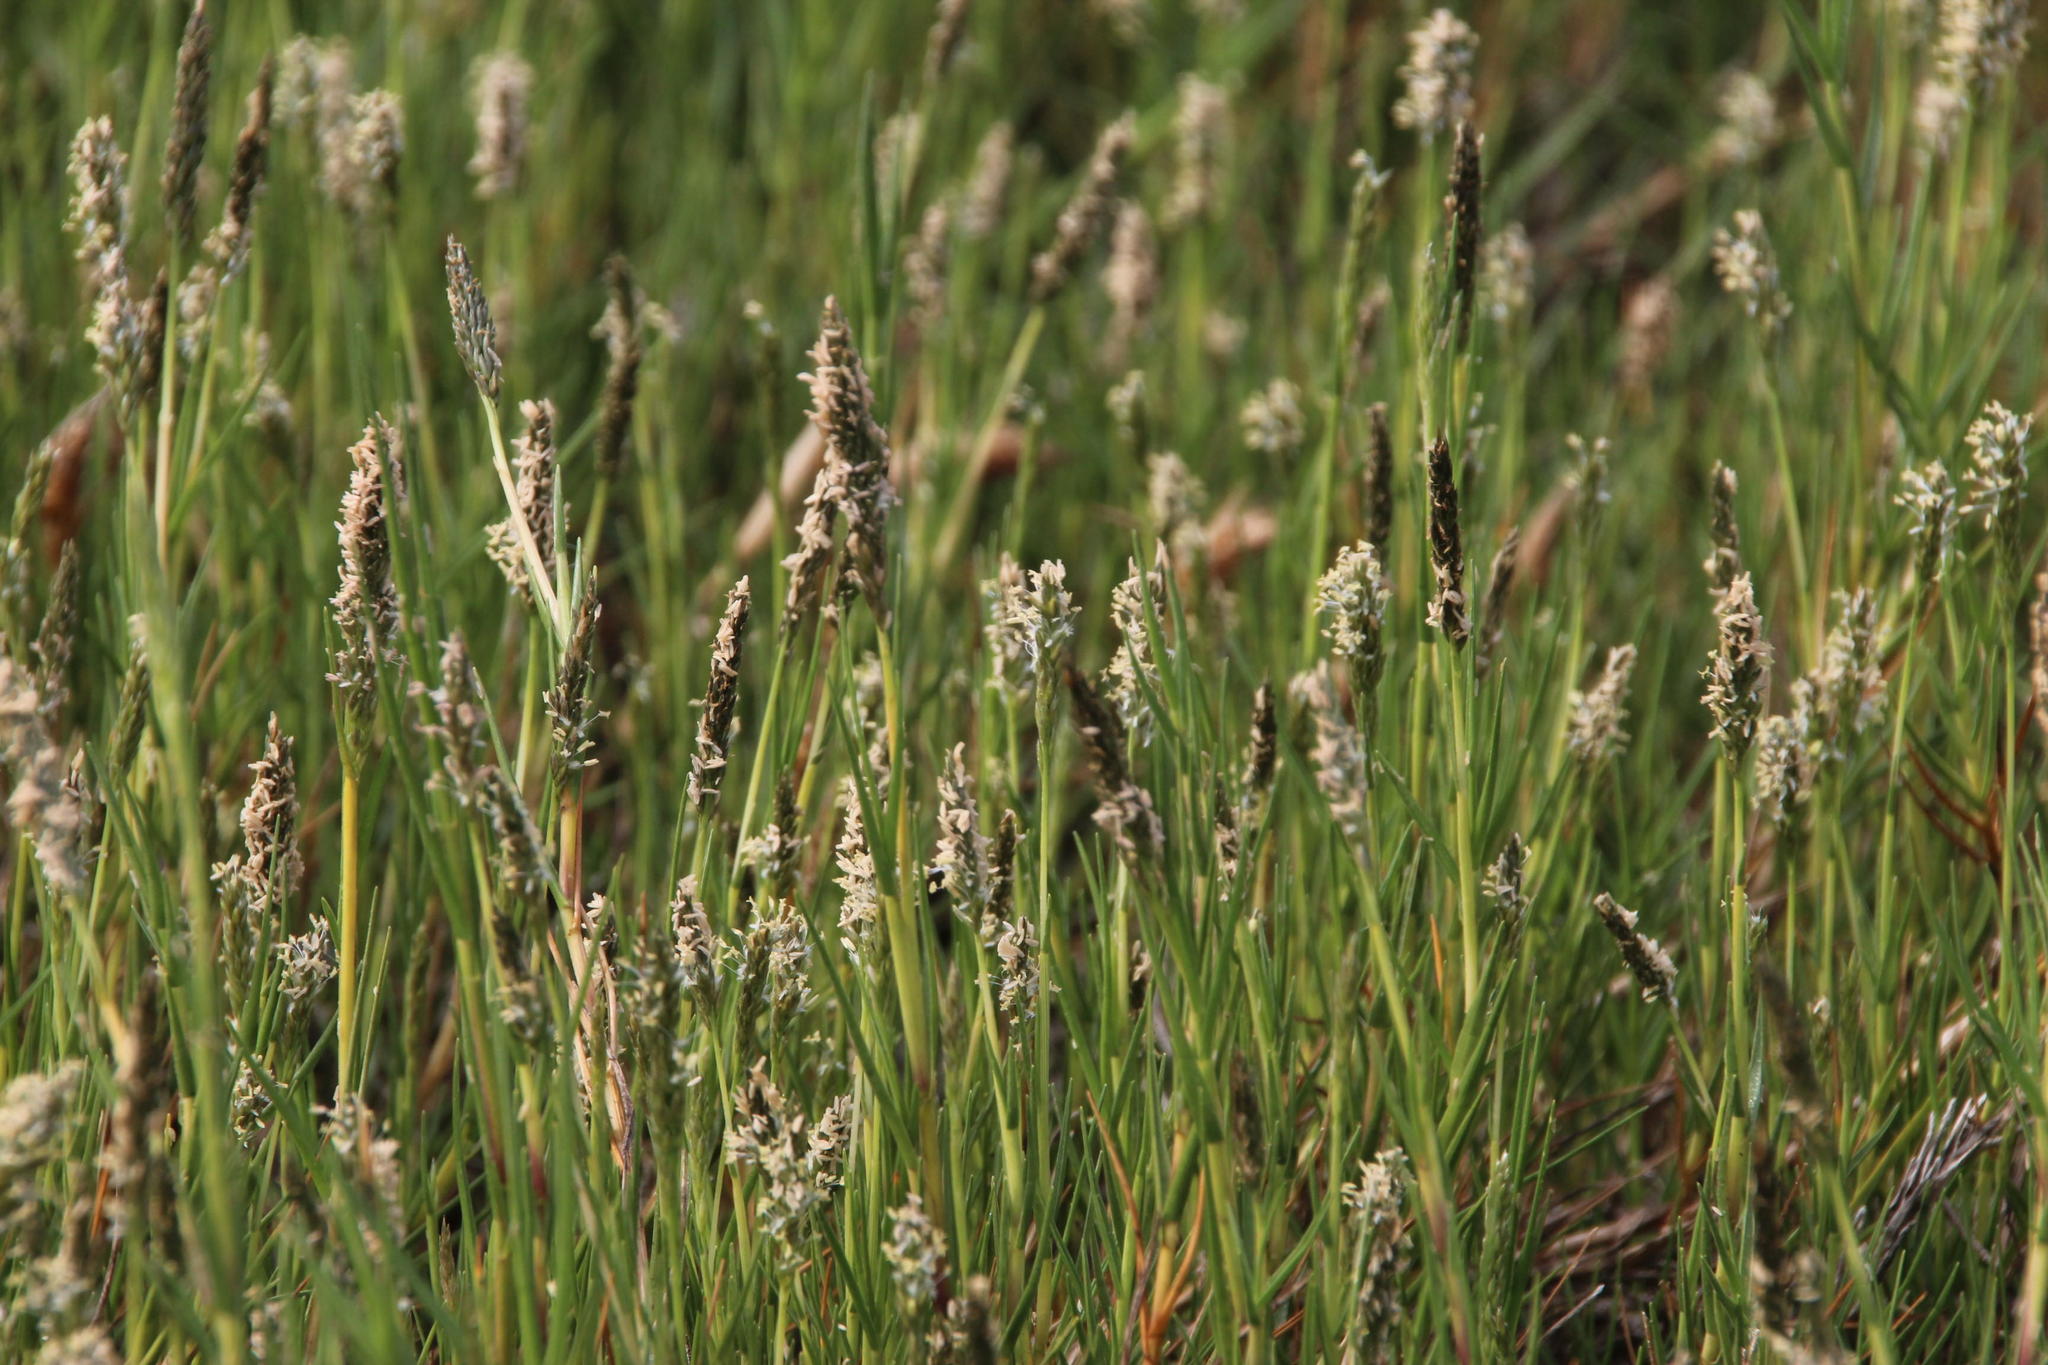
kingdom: Plantae
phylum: Tracheophyta
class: Liliopsida
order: Poales
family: Poaceae
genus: Sporobolus
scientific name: Sporobolus virginicus
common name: Beach dropseed
